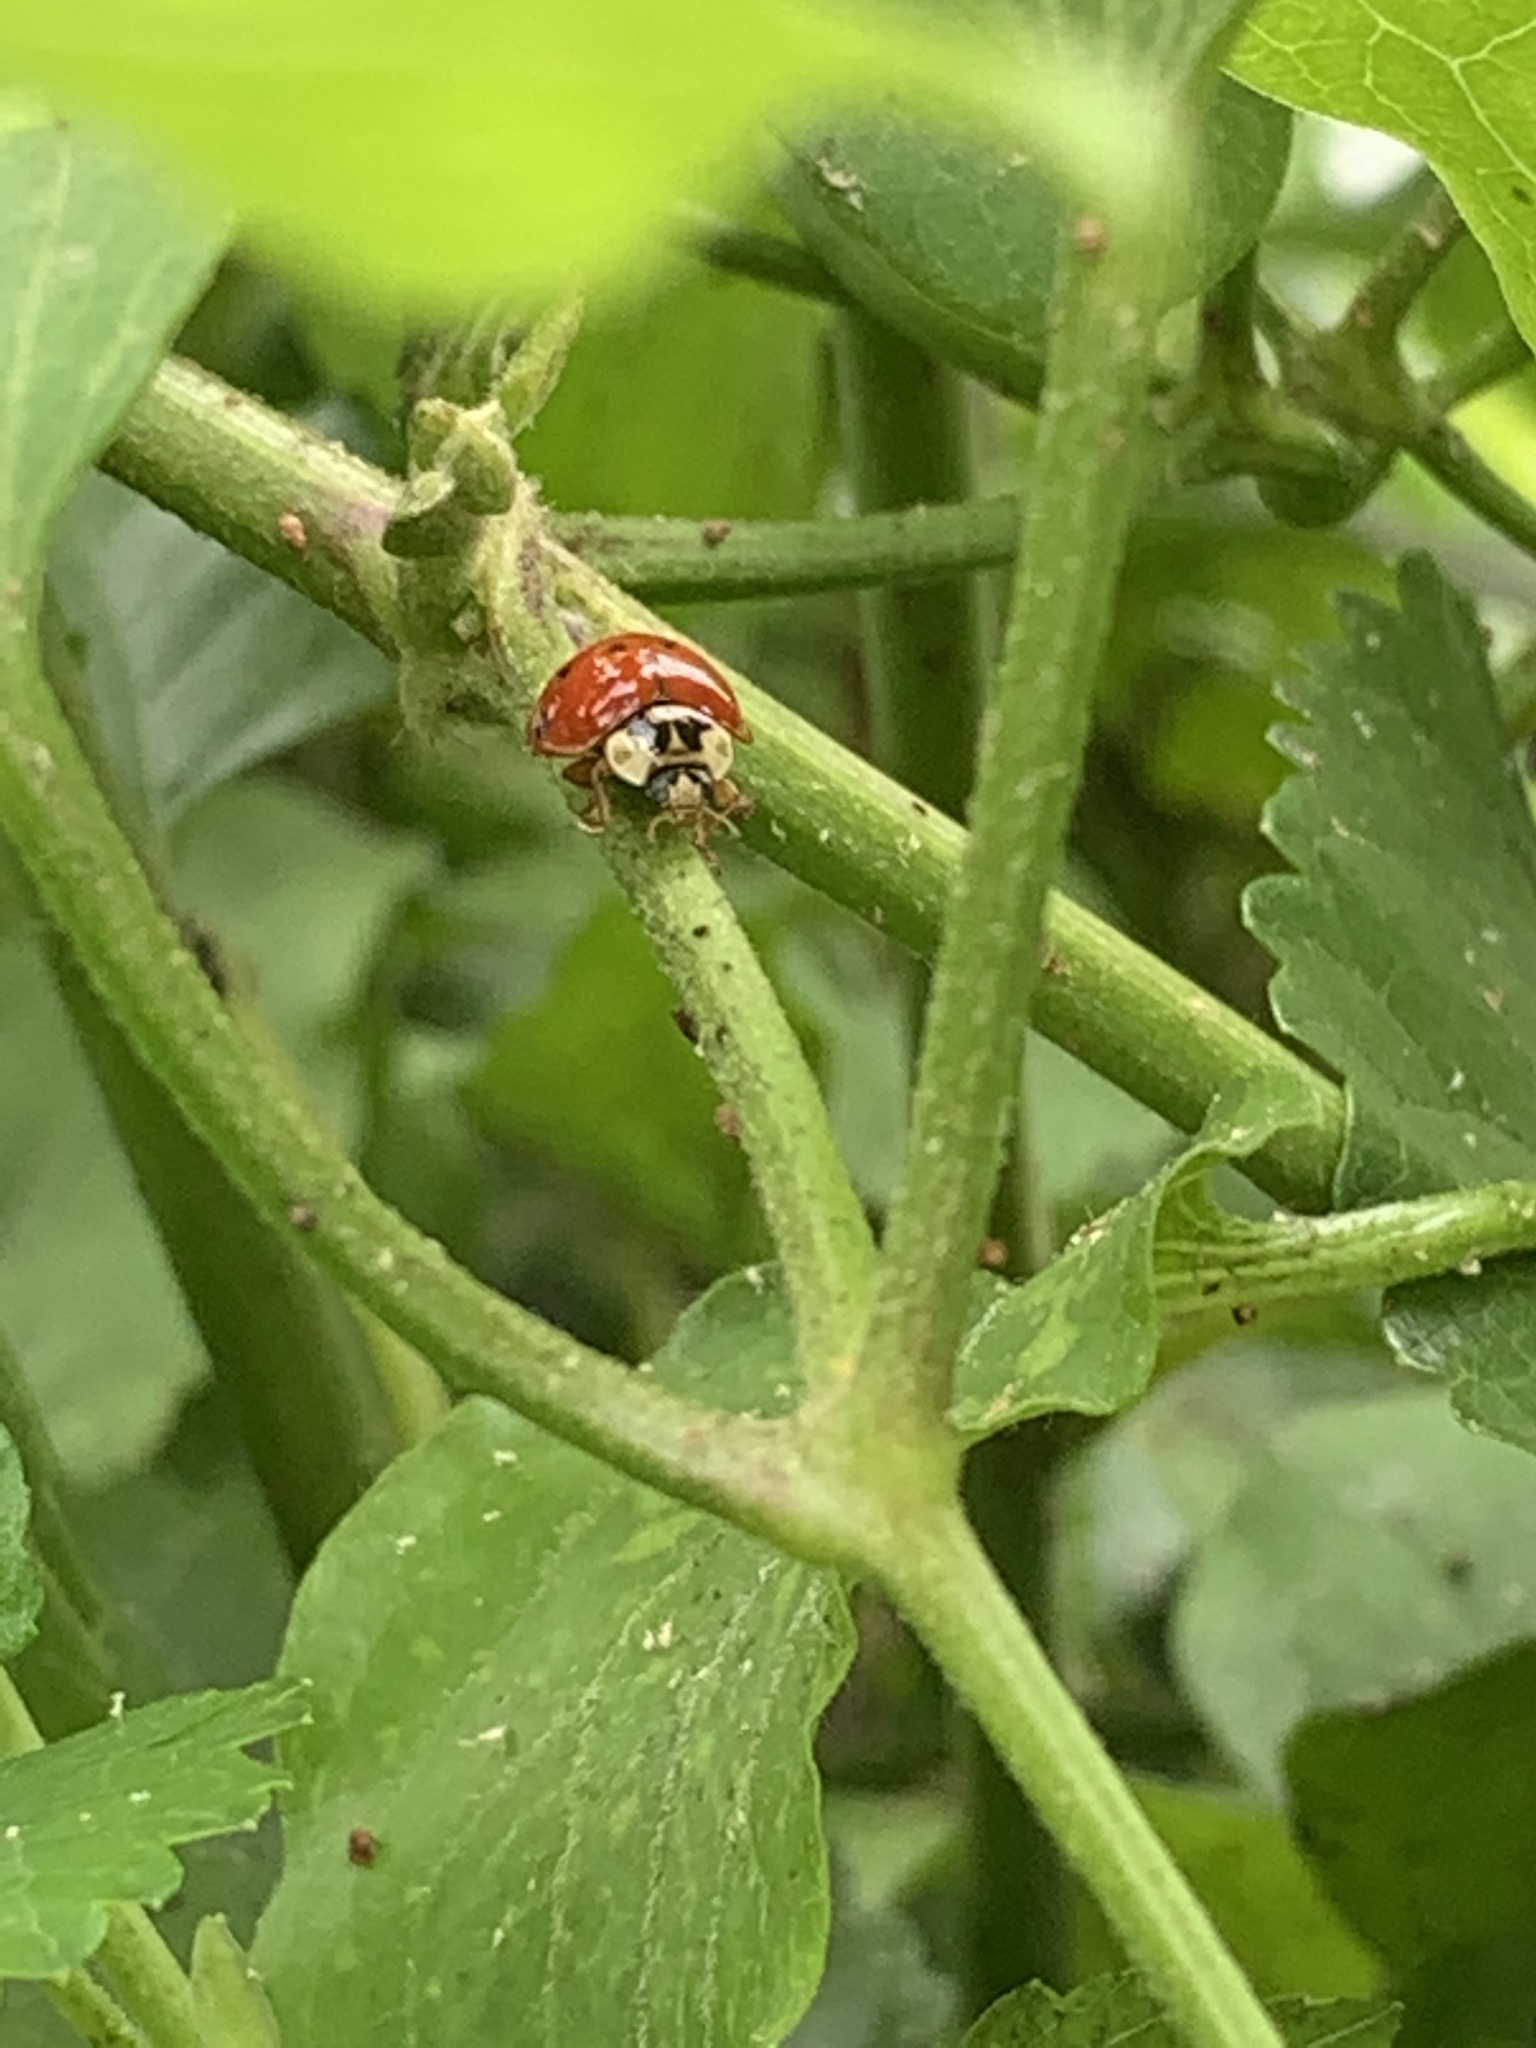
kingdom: Animalia
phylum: Arthropoda
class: Insecta
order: Coleoptera
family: Coccinellidae
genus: Harmonia
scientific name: Harmonia axyridis
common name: Harlequin ladybird
